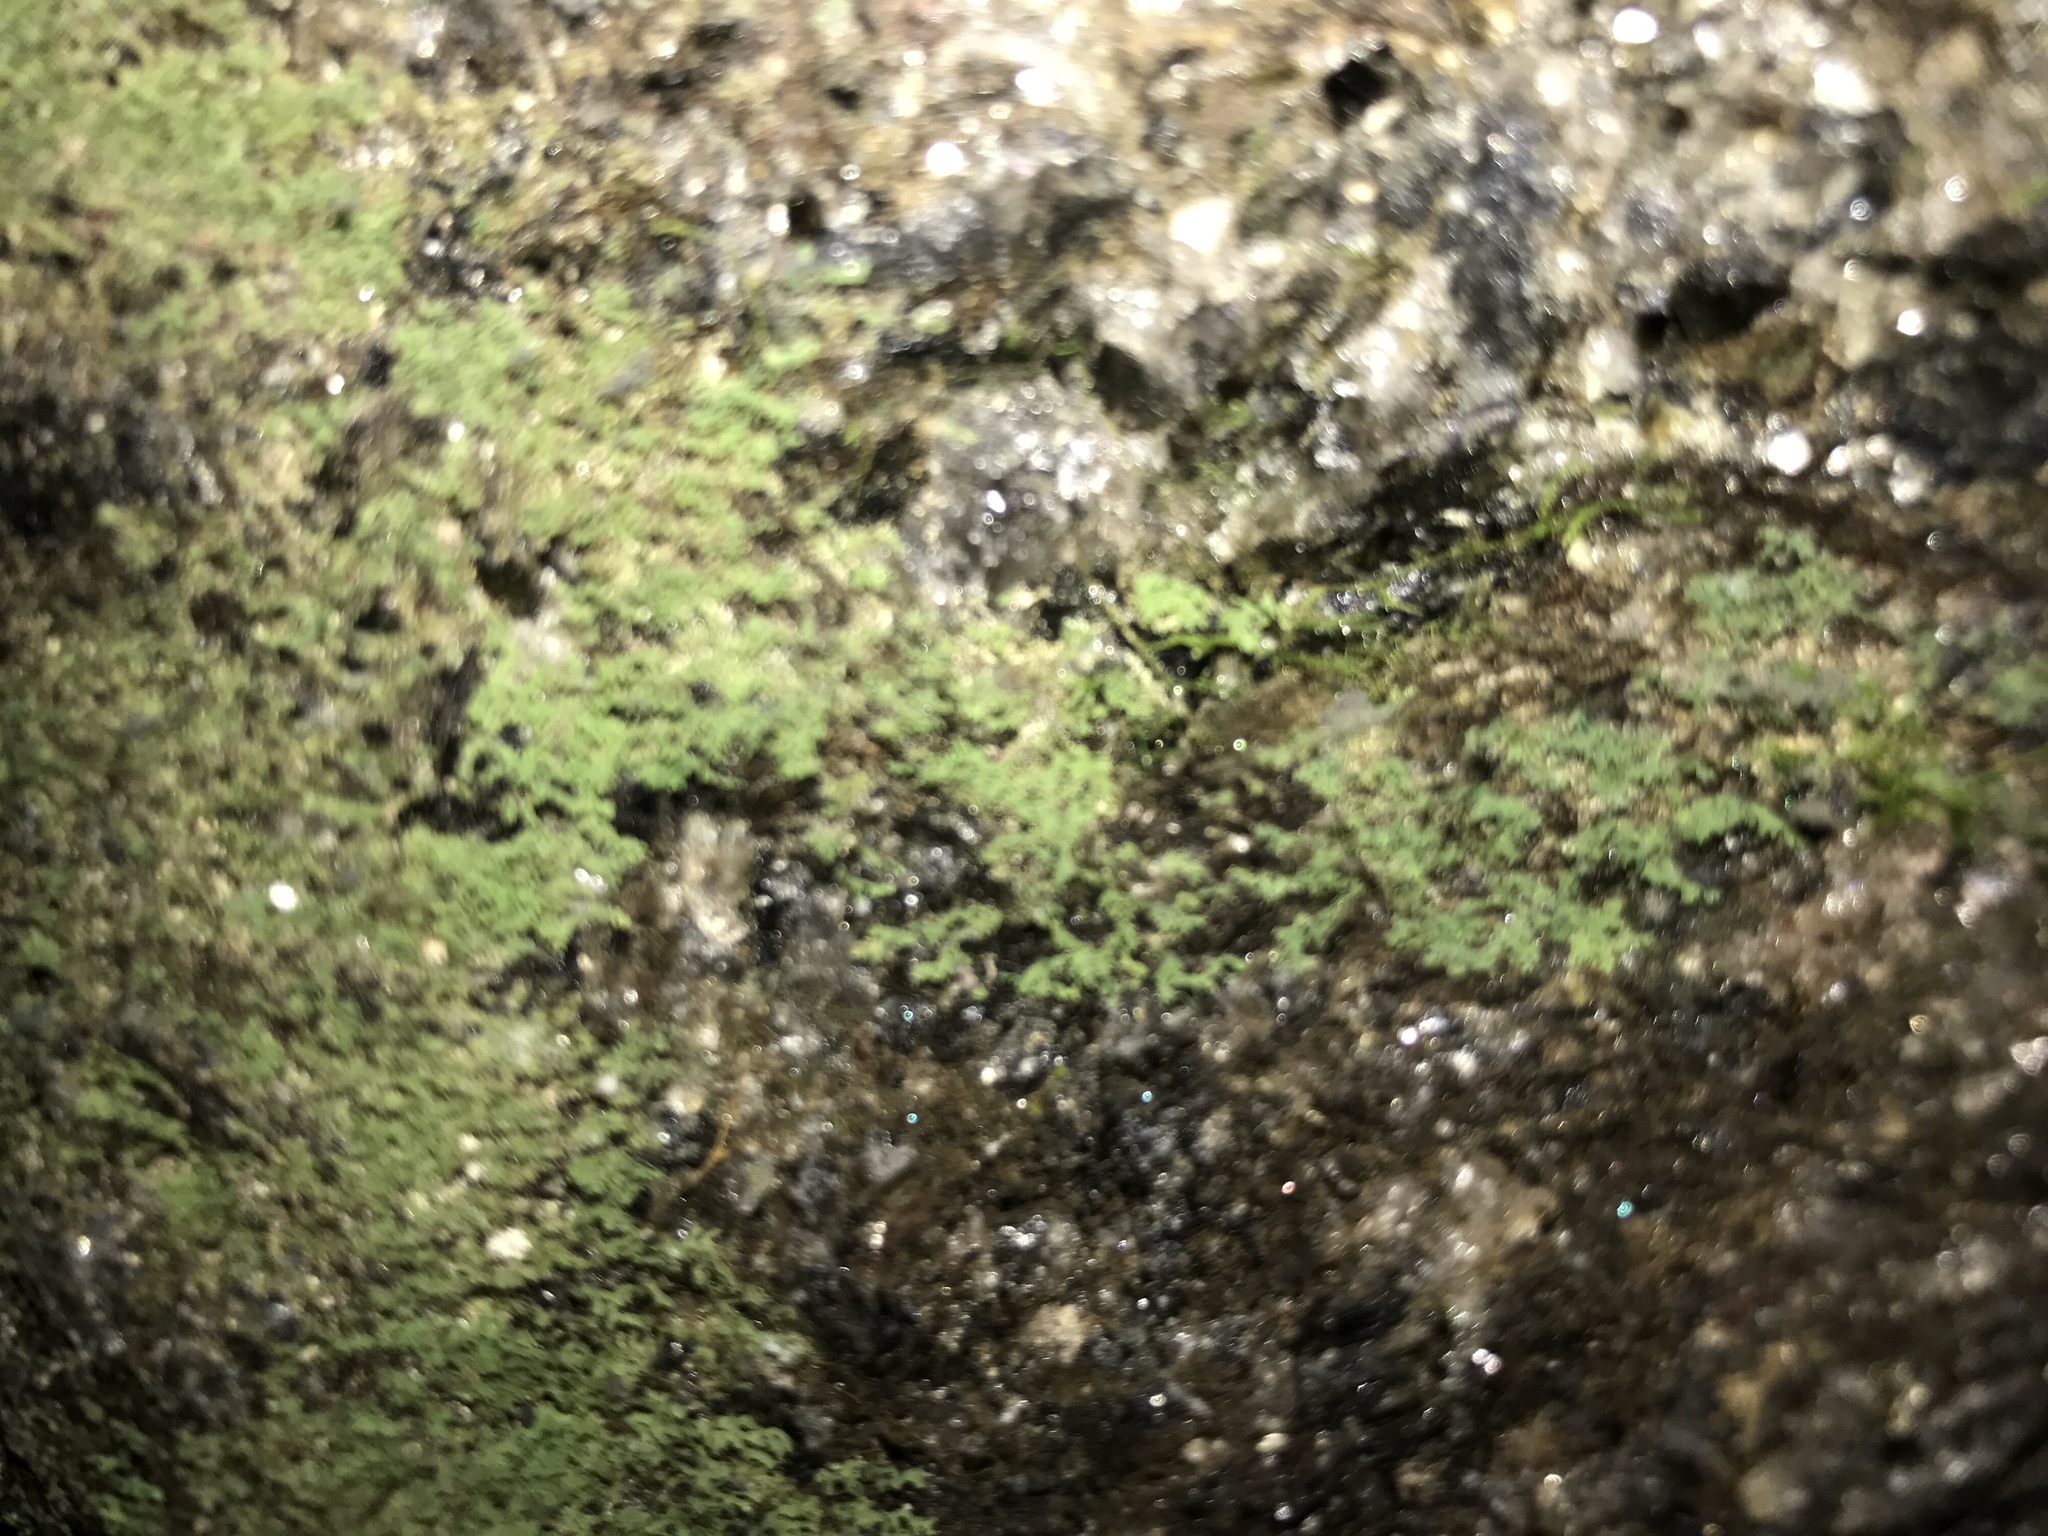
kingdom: Plantae
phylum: Tracheophyta
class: Polypodiopsida
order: Polypodiales
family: Pteridaceae
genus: Vittaria
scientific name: Vittaria appalachiana
